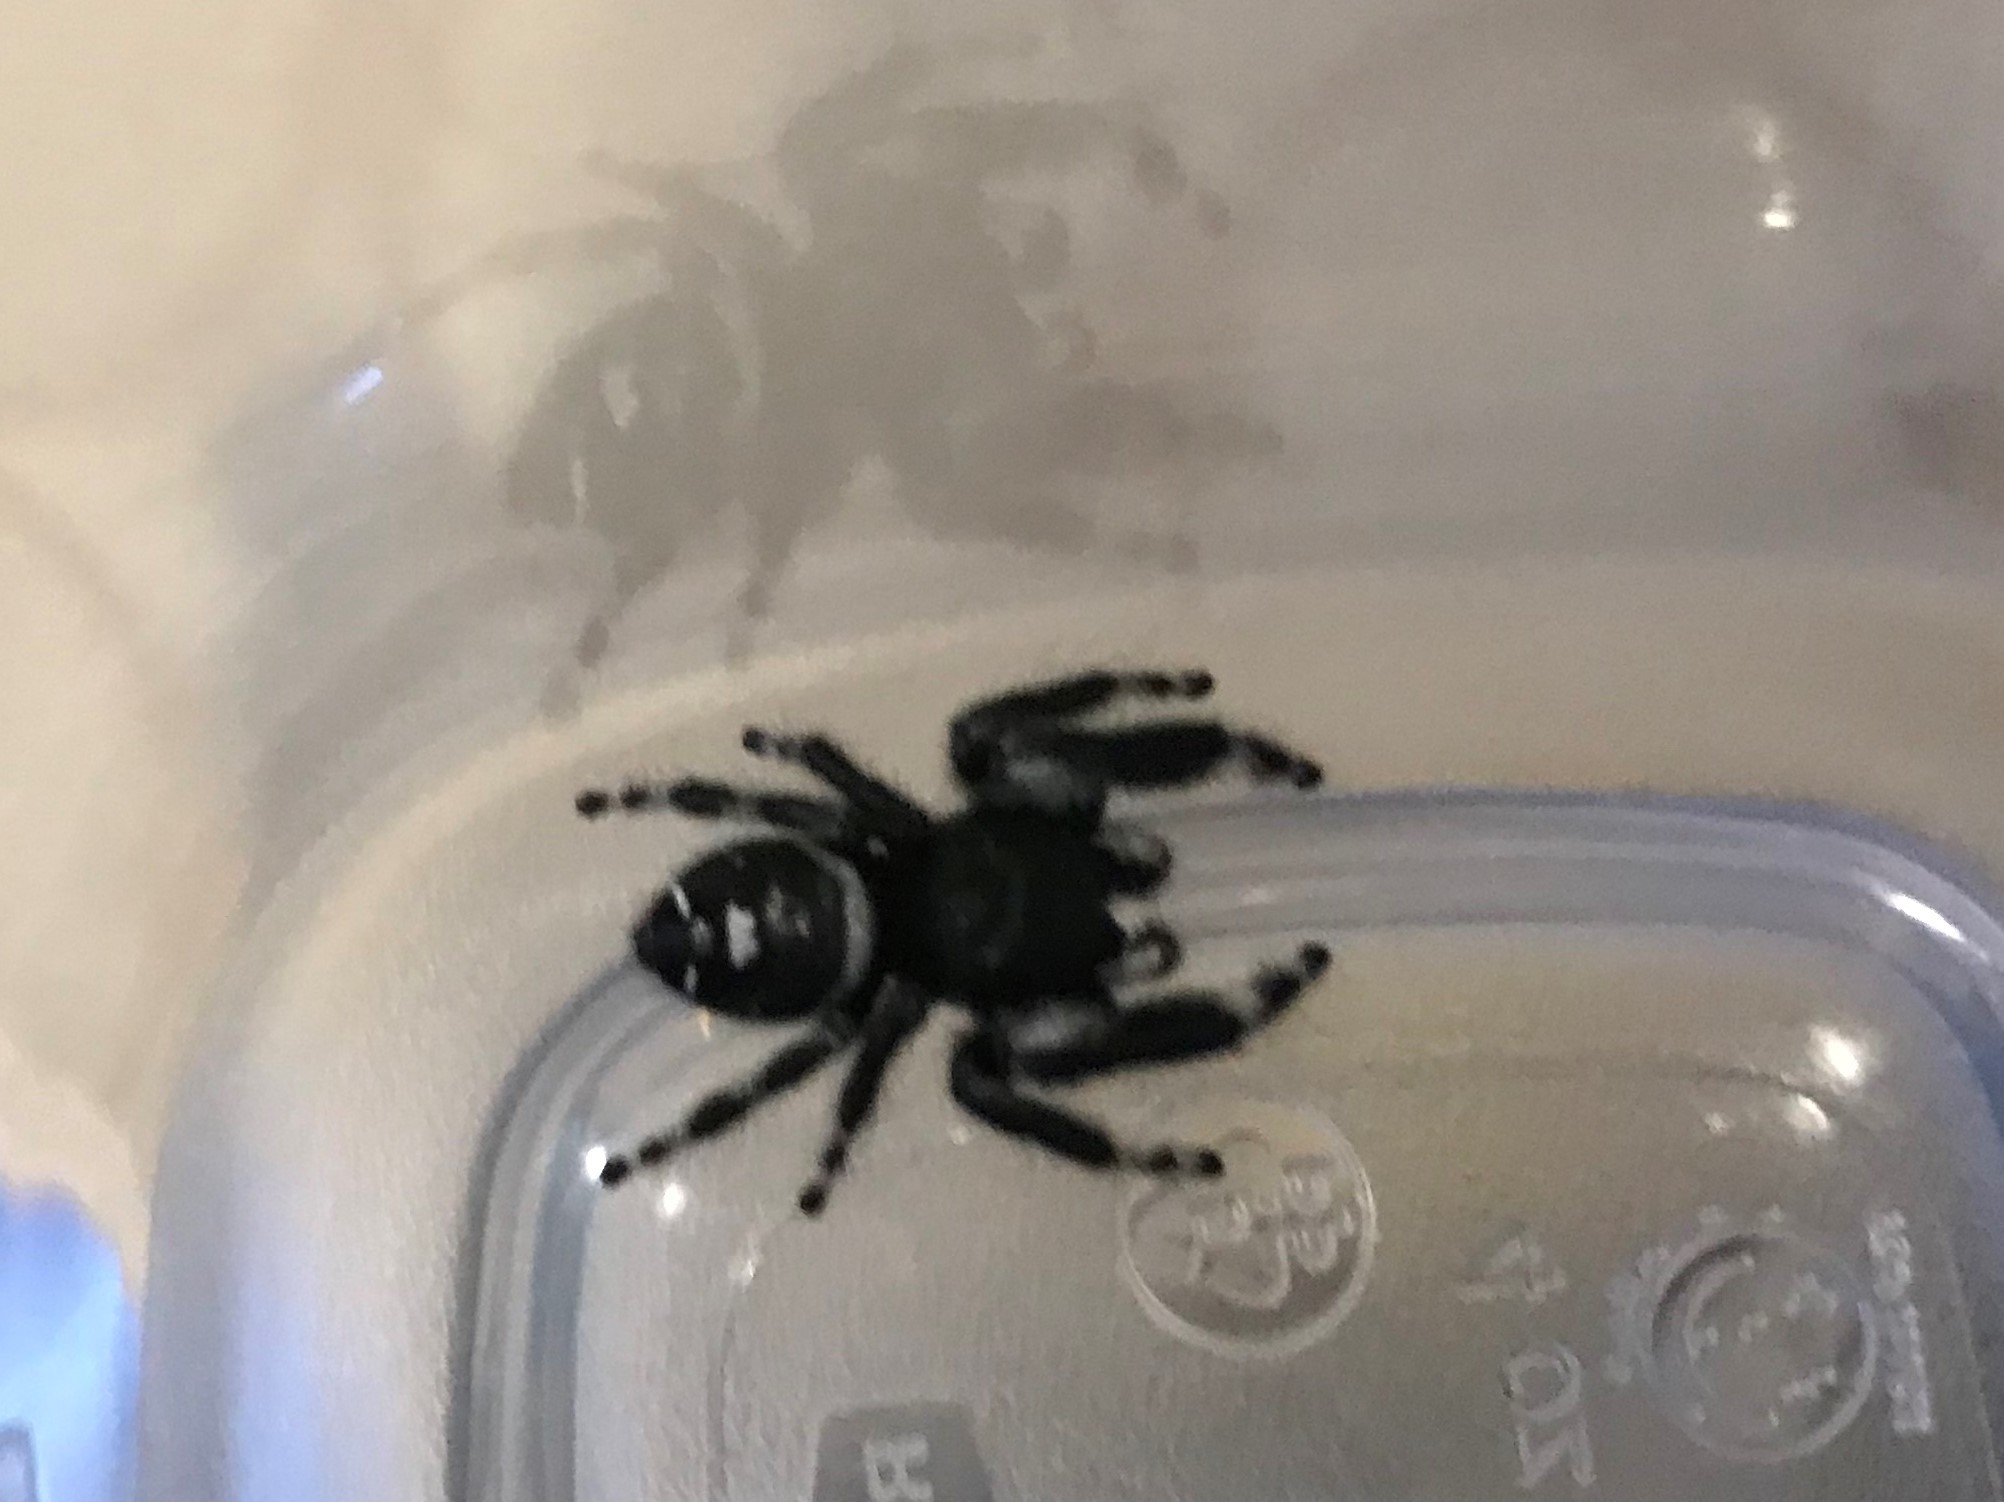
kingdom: Animalia
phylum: Arthropoda
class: Arachnida
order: Araneae
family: Salticidae
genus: Phidippus
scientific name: Phidippus audax
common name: Bold jumper
